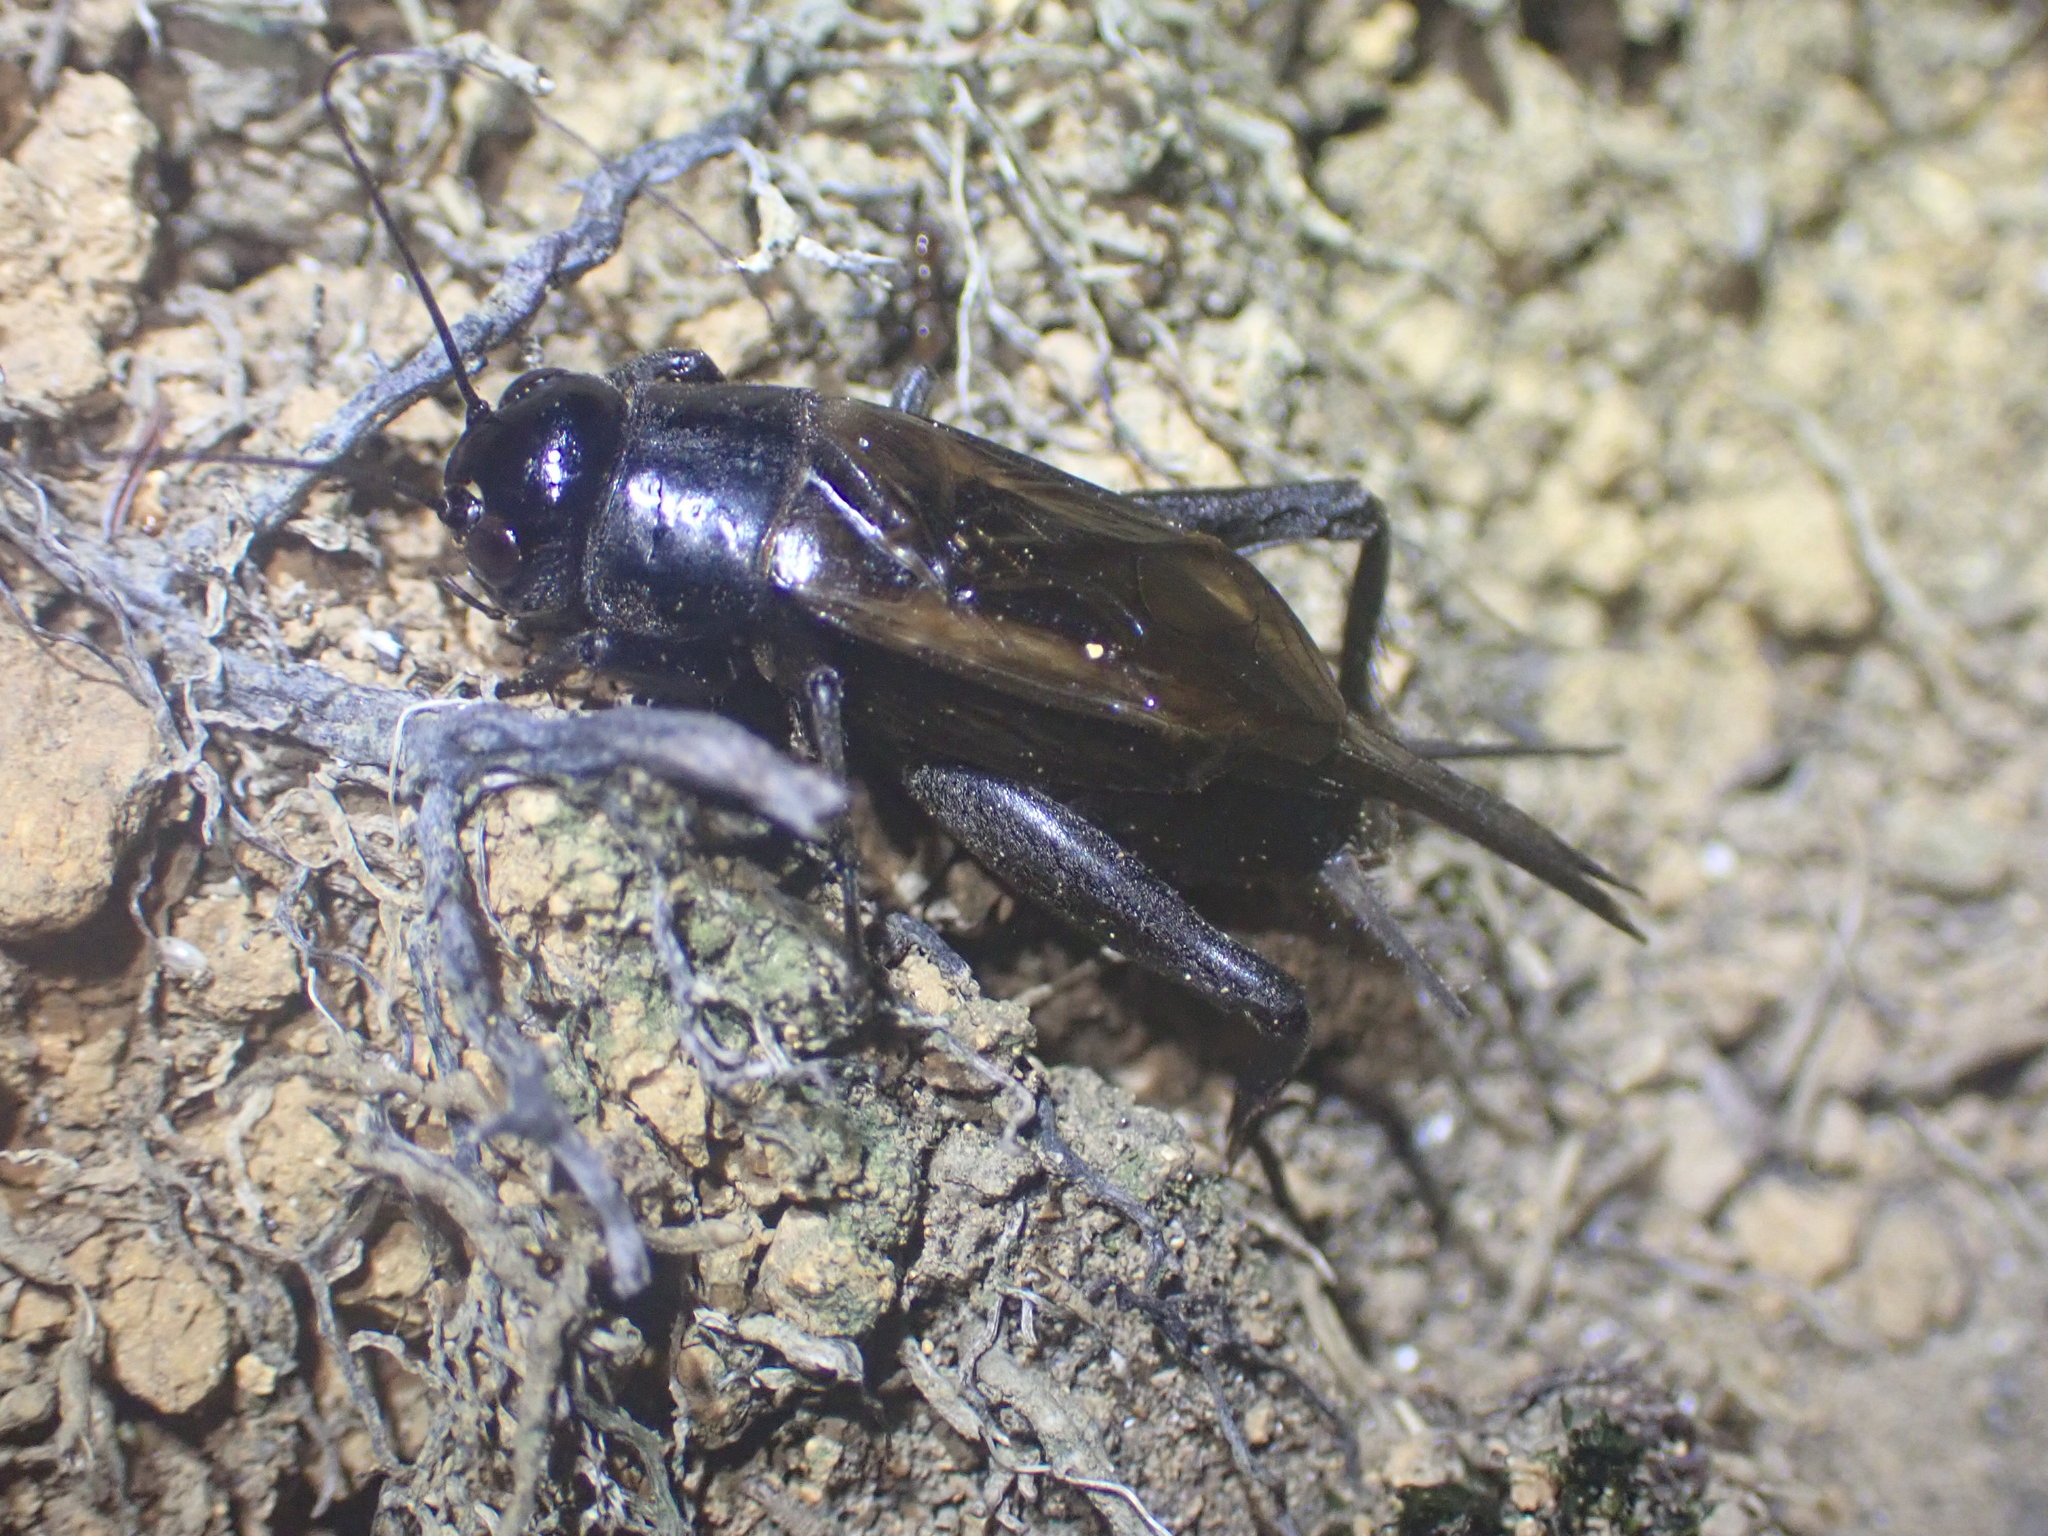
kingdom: Animalia
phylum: Arthropoda
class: Insecta
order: Orthoptera
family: Gryllidae
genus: Teleogryllus
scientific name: Teleogryllus commodus
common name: Black field cricket
